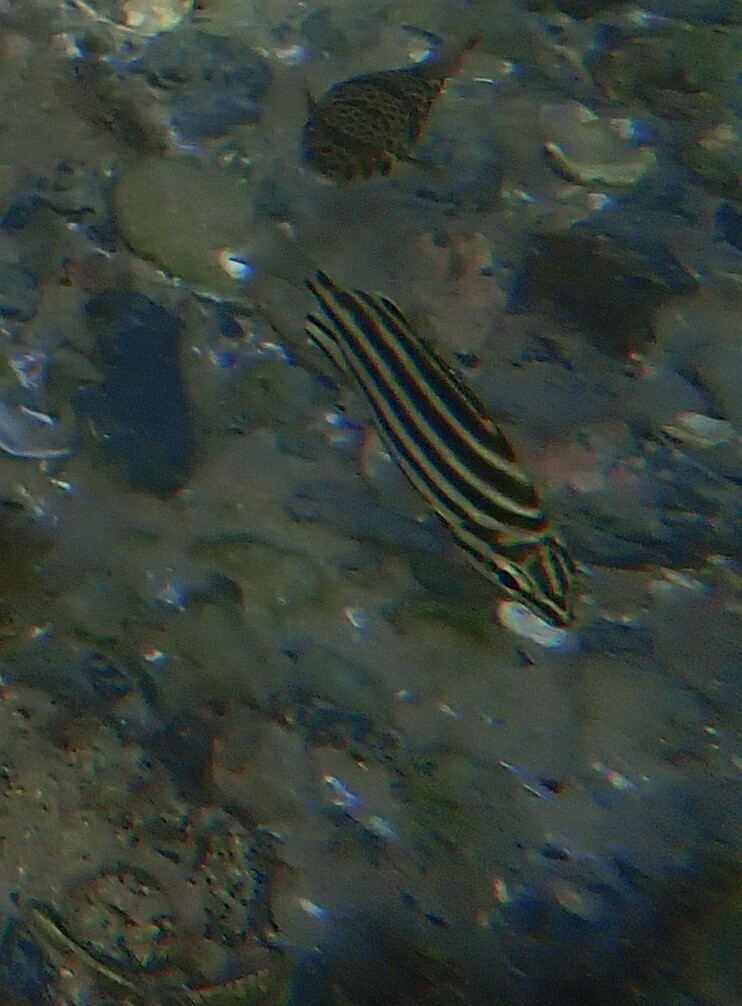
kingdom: Animalia
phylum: Chordata
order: Perciformes
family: Kyphosidae
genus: Microcanthus
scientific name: Microcanthus joyceae
